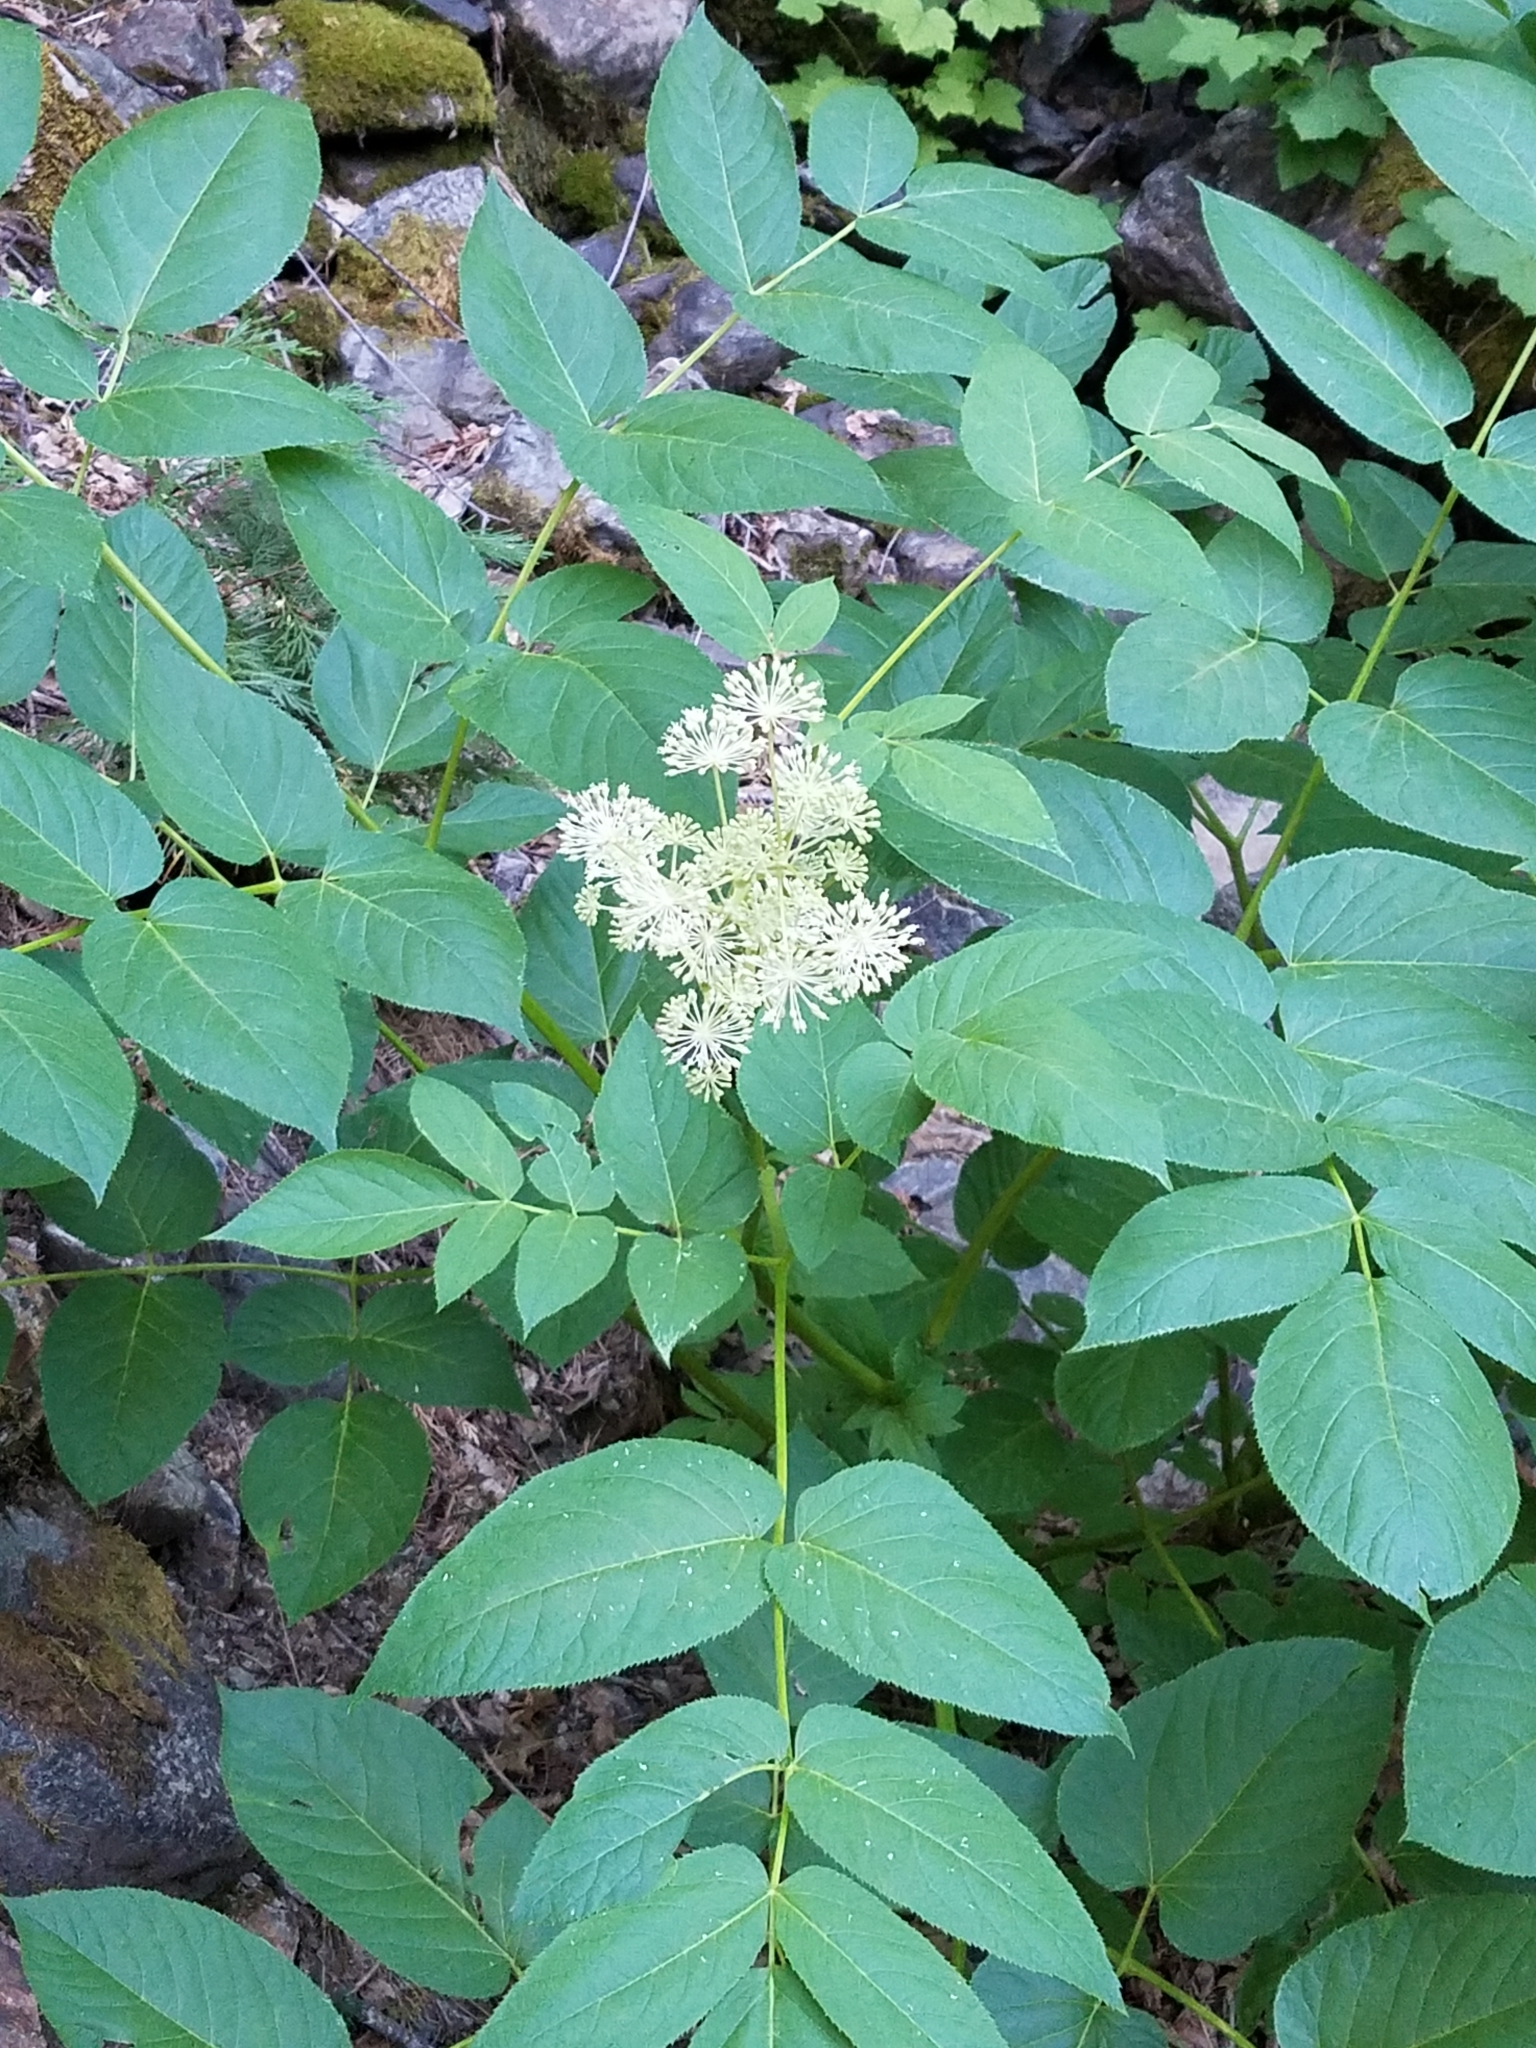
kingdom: Plantae
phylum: Tracheophyta
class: Magnoliopsida
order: Apiales
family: Araliaceae
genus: Aralia
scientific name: Aralia californica
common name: California-ginseng
